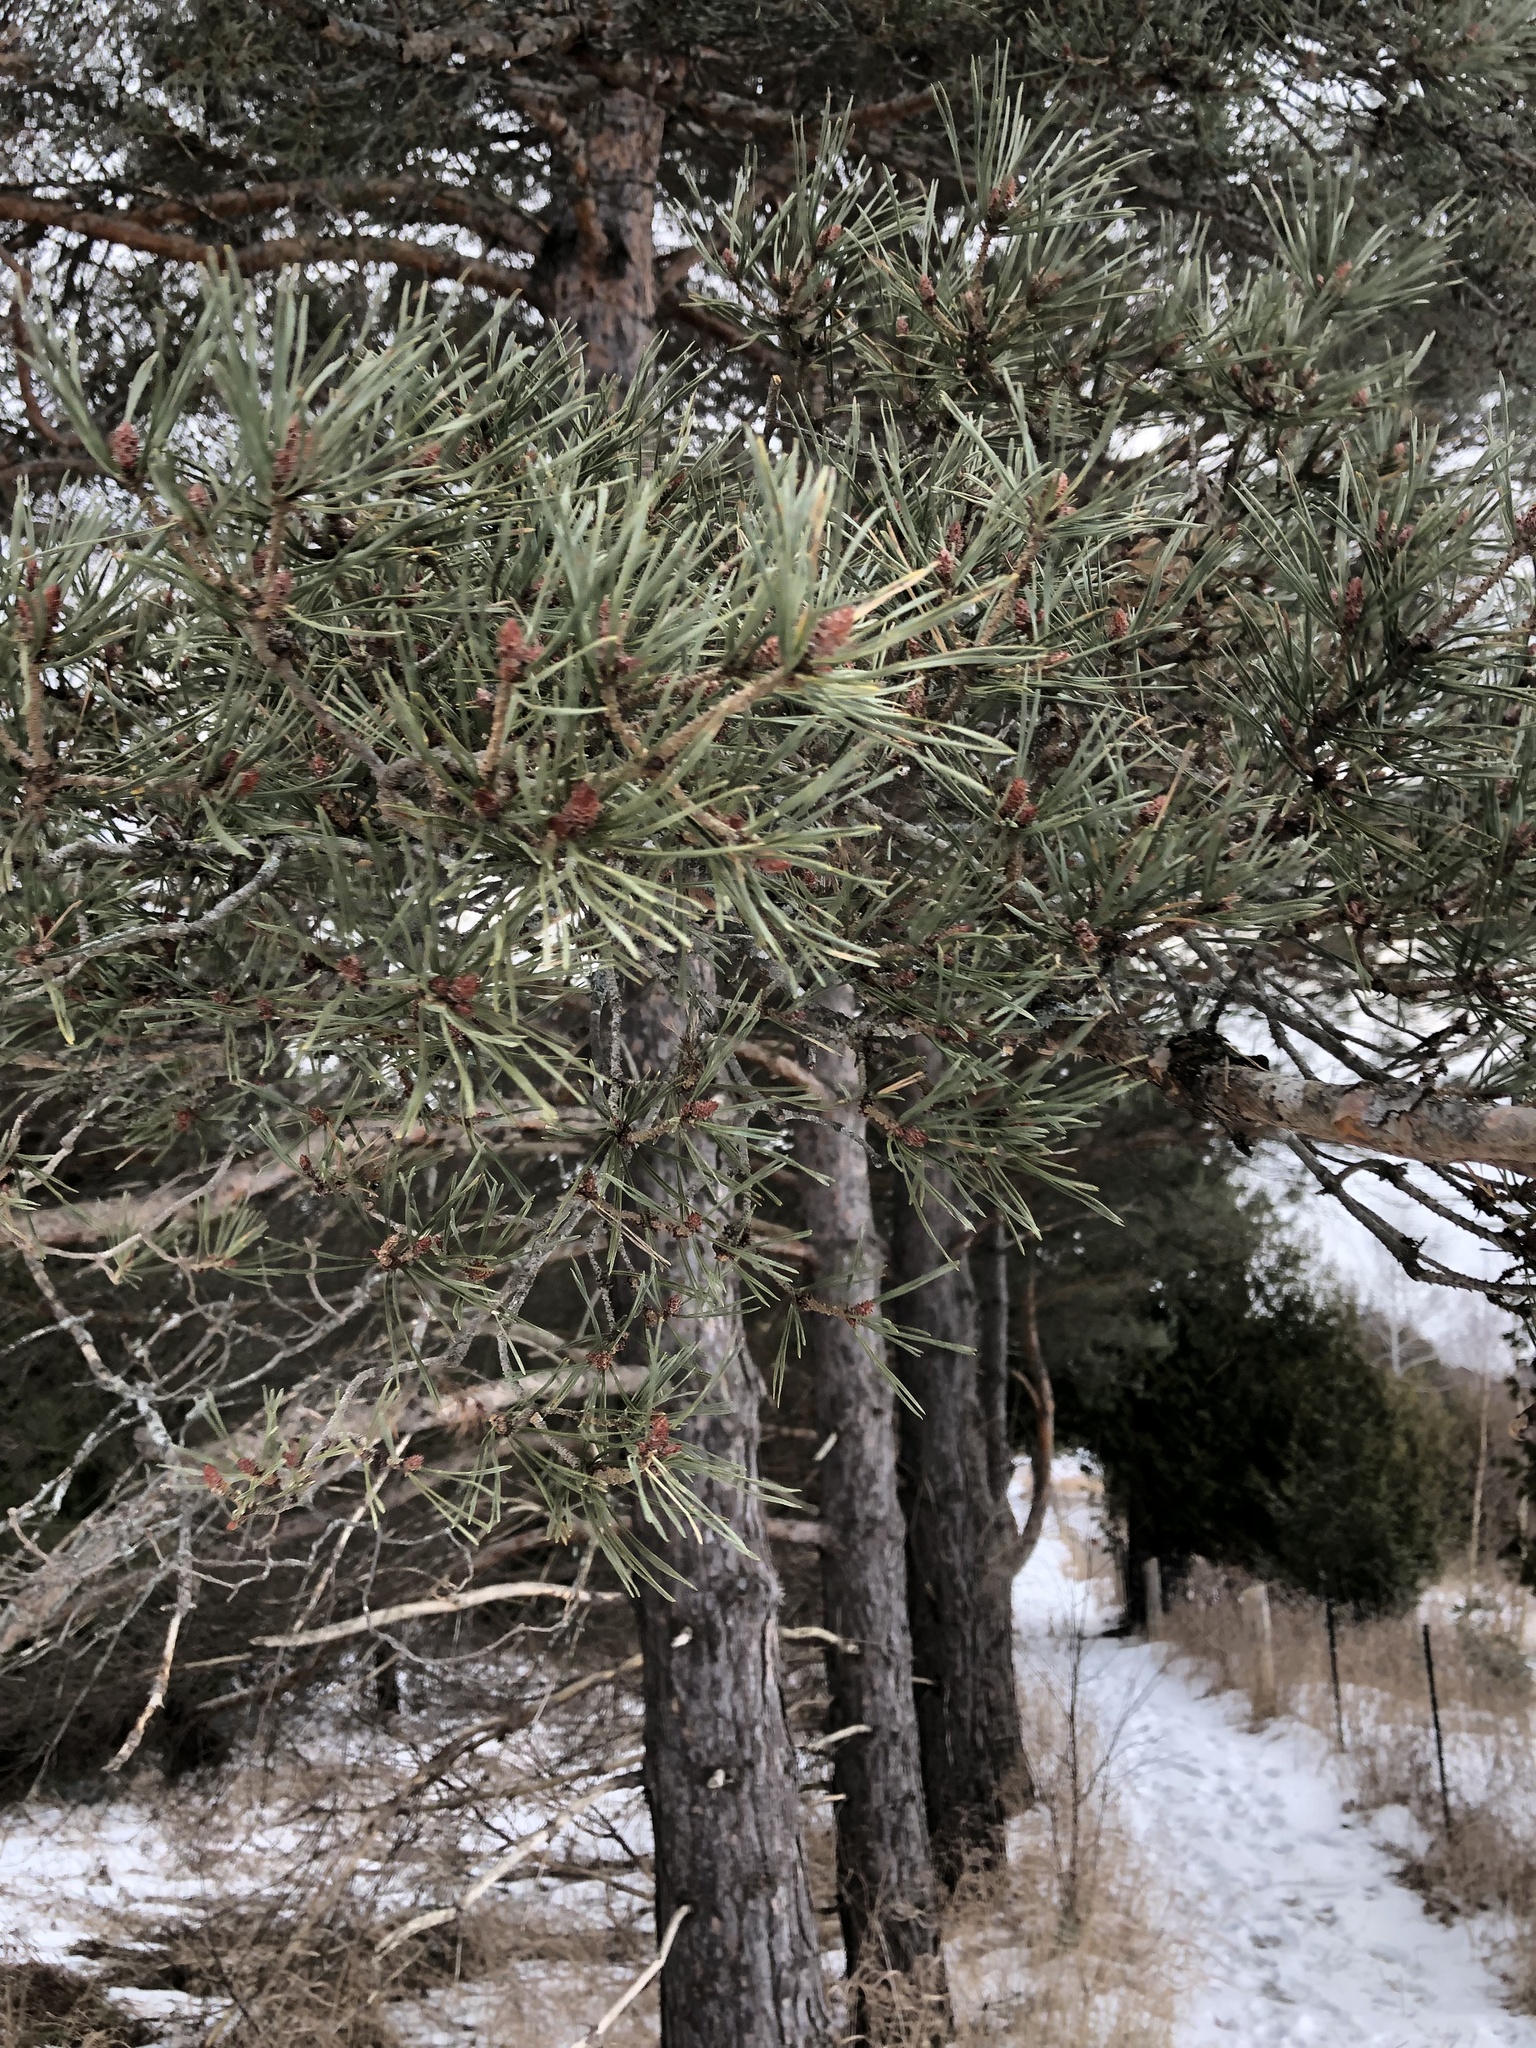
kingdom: Plantae
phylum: Tracheophyta
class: Pinopsida
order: Pinales
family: Pinaceae
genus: Pinus
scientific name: Pinus sylvestris
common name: Scots pine
